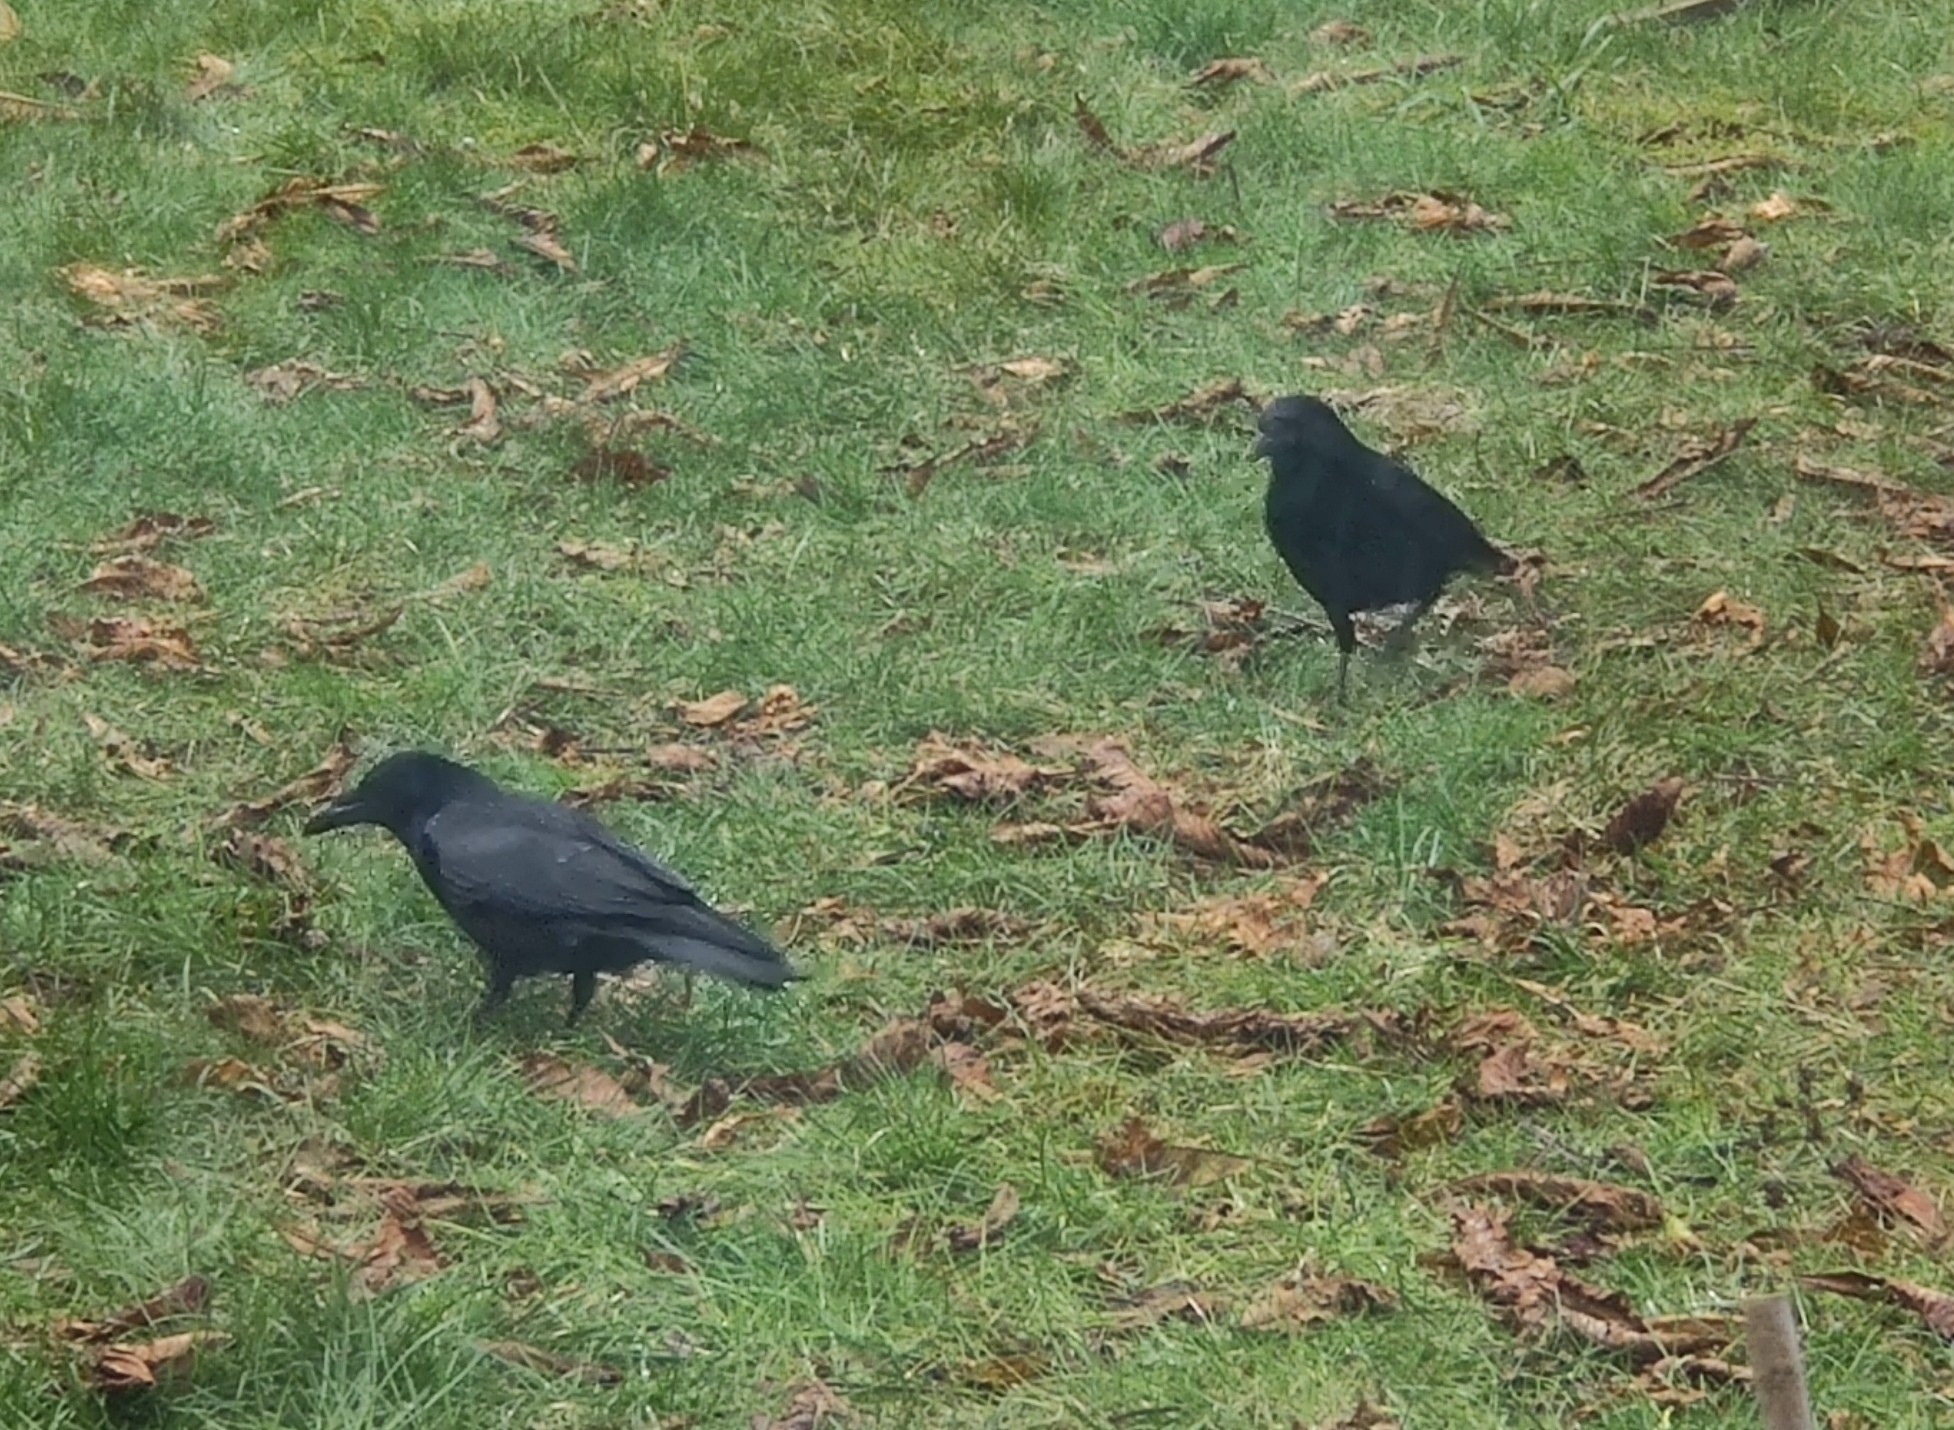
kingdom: Animalia
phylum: Chordata
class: Aves
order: Passeriformes
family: Corvidae
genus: Corvus
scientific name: Corvus corone
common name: Carrion crow
